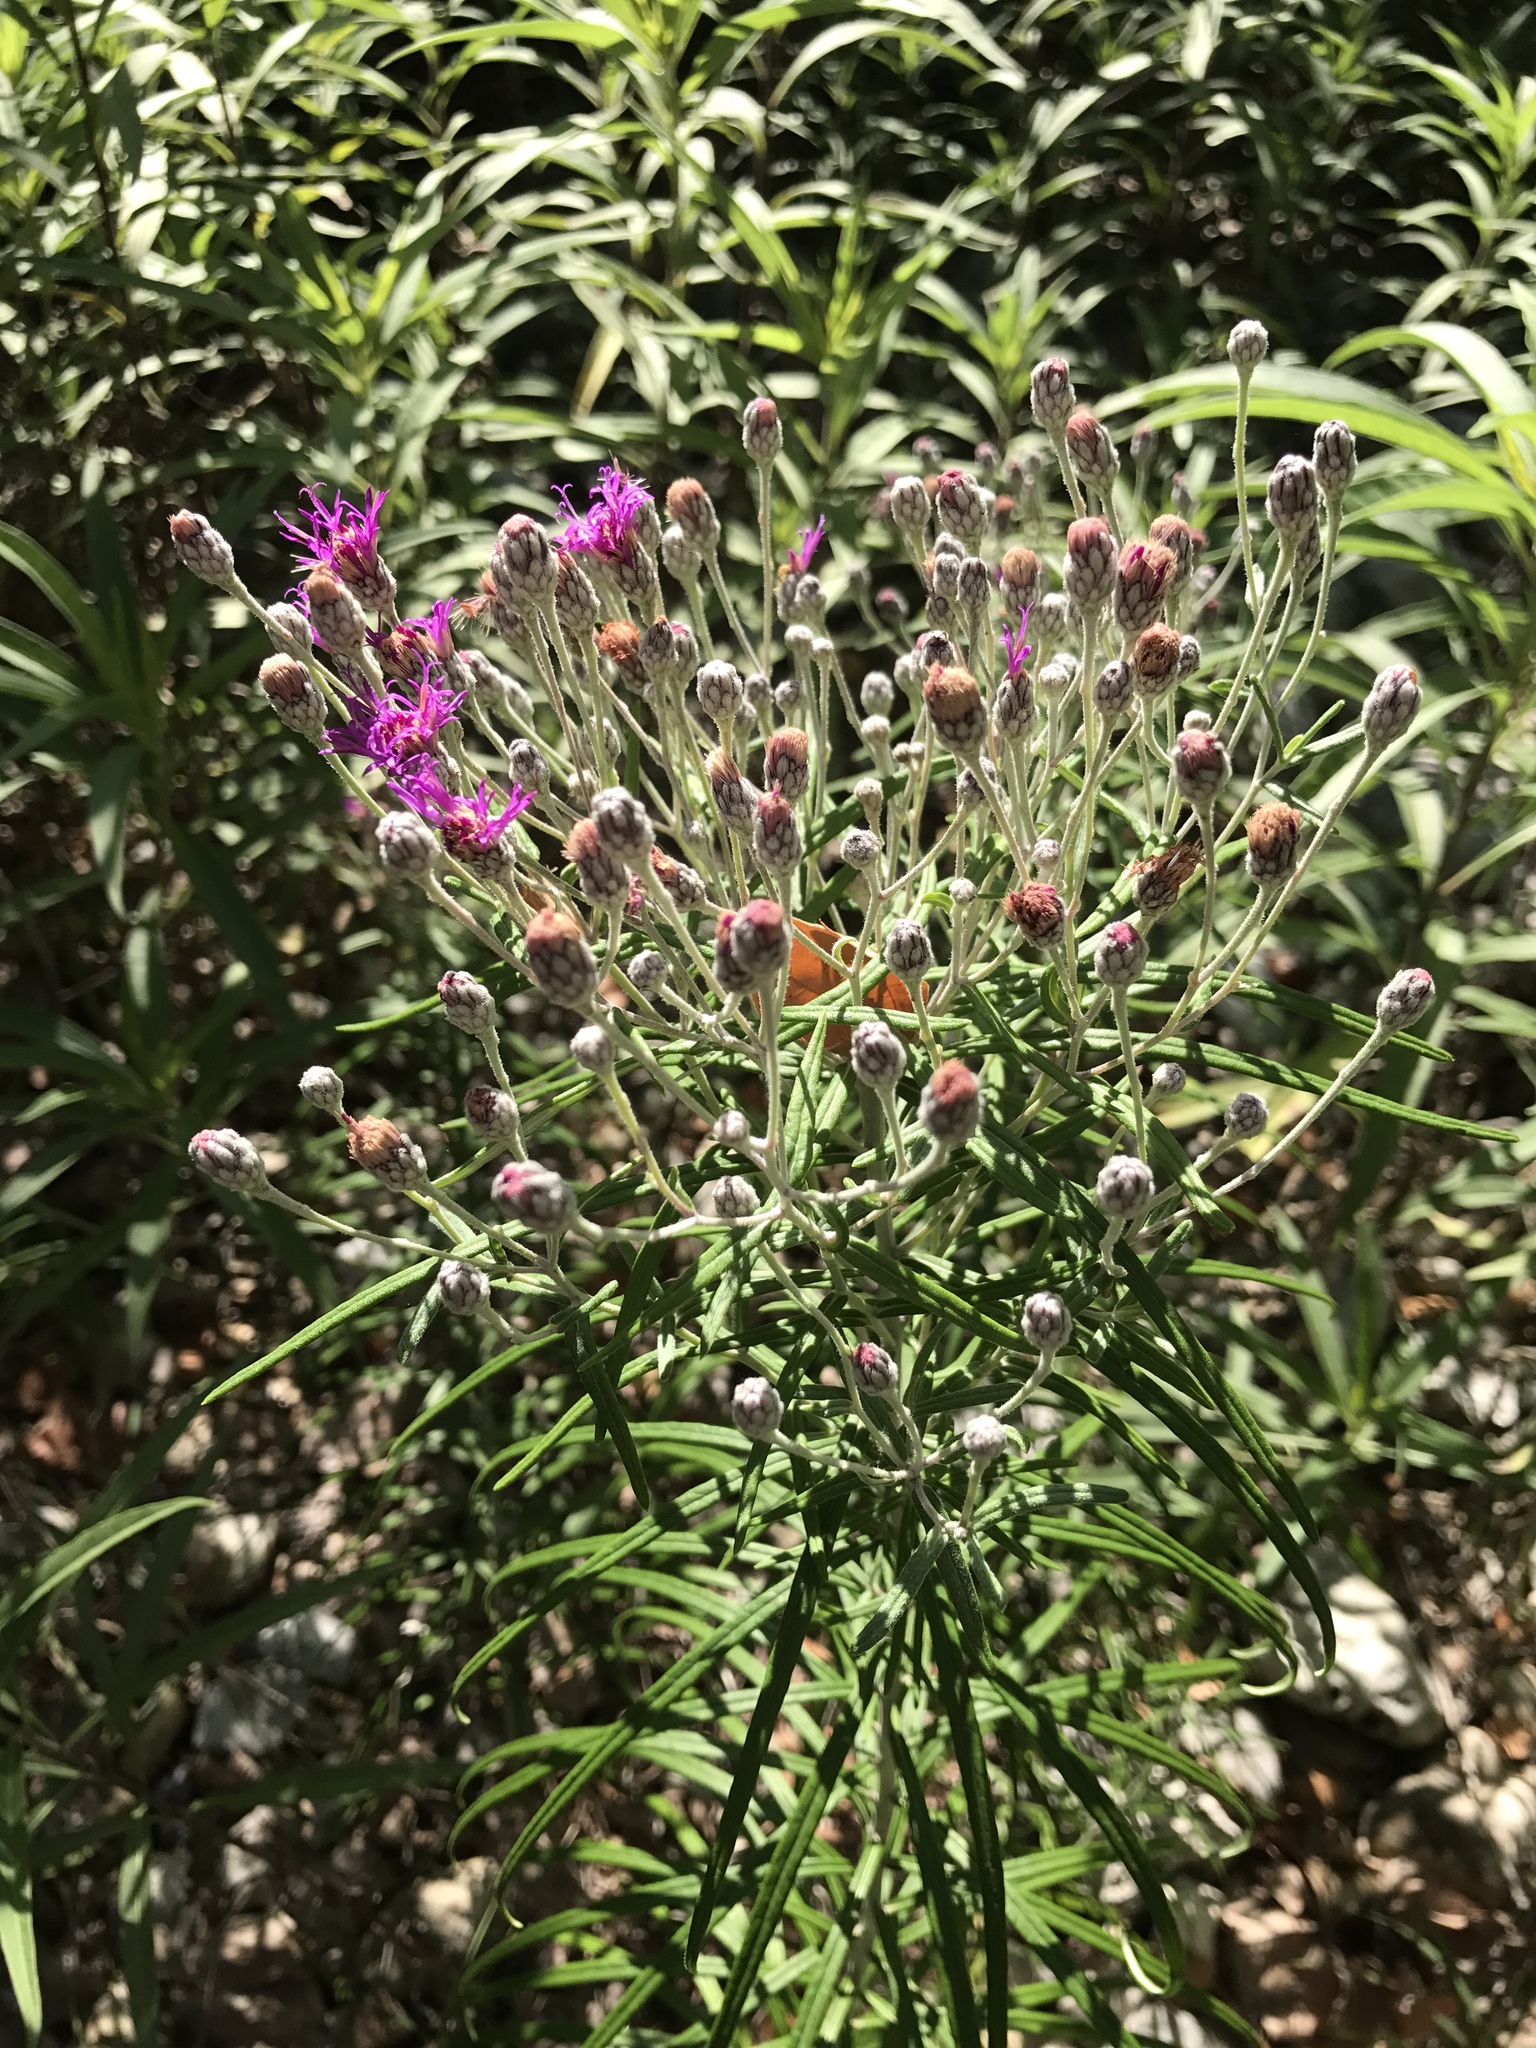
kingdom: Plantae
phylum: Tracheophyta
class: Magnoliopsida
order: Asterales
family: Asteraceae
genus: Vernonia
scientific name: Vernonia lindheimeri
